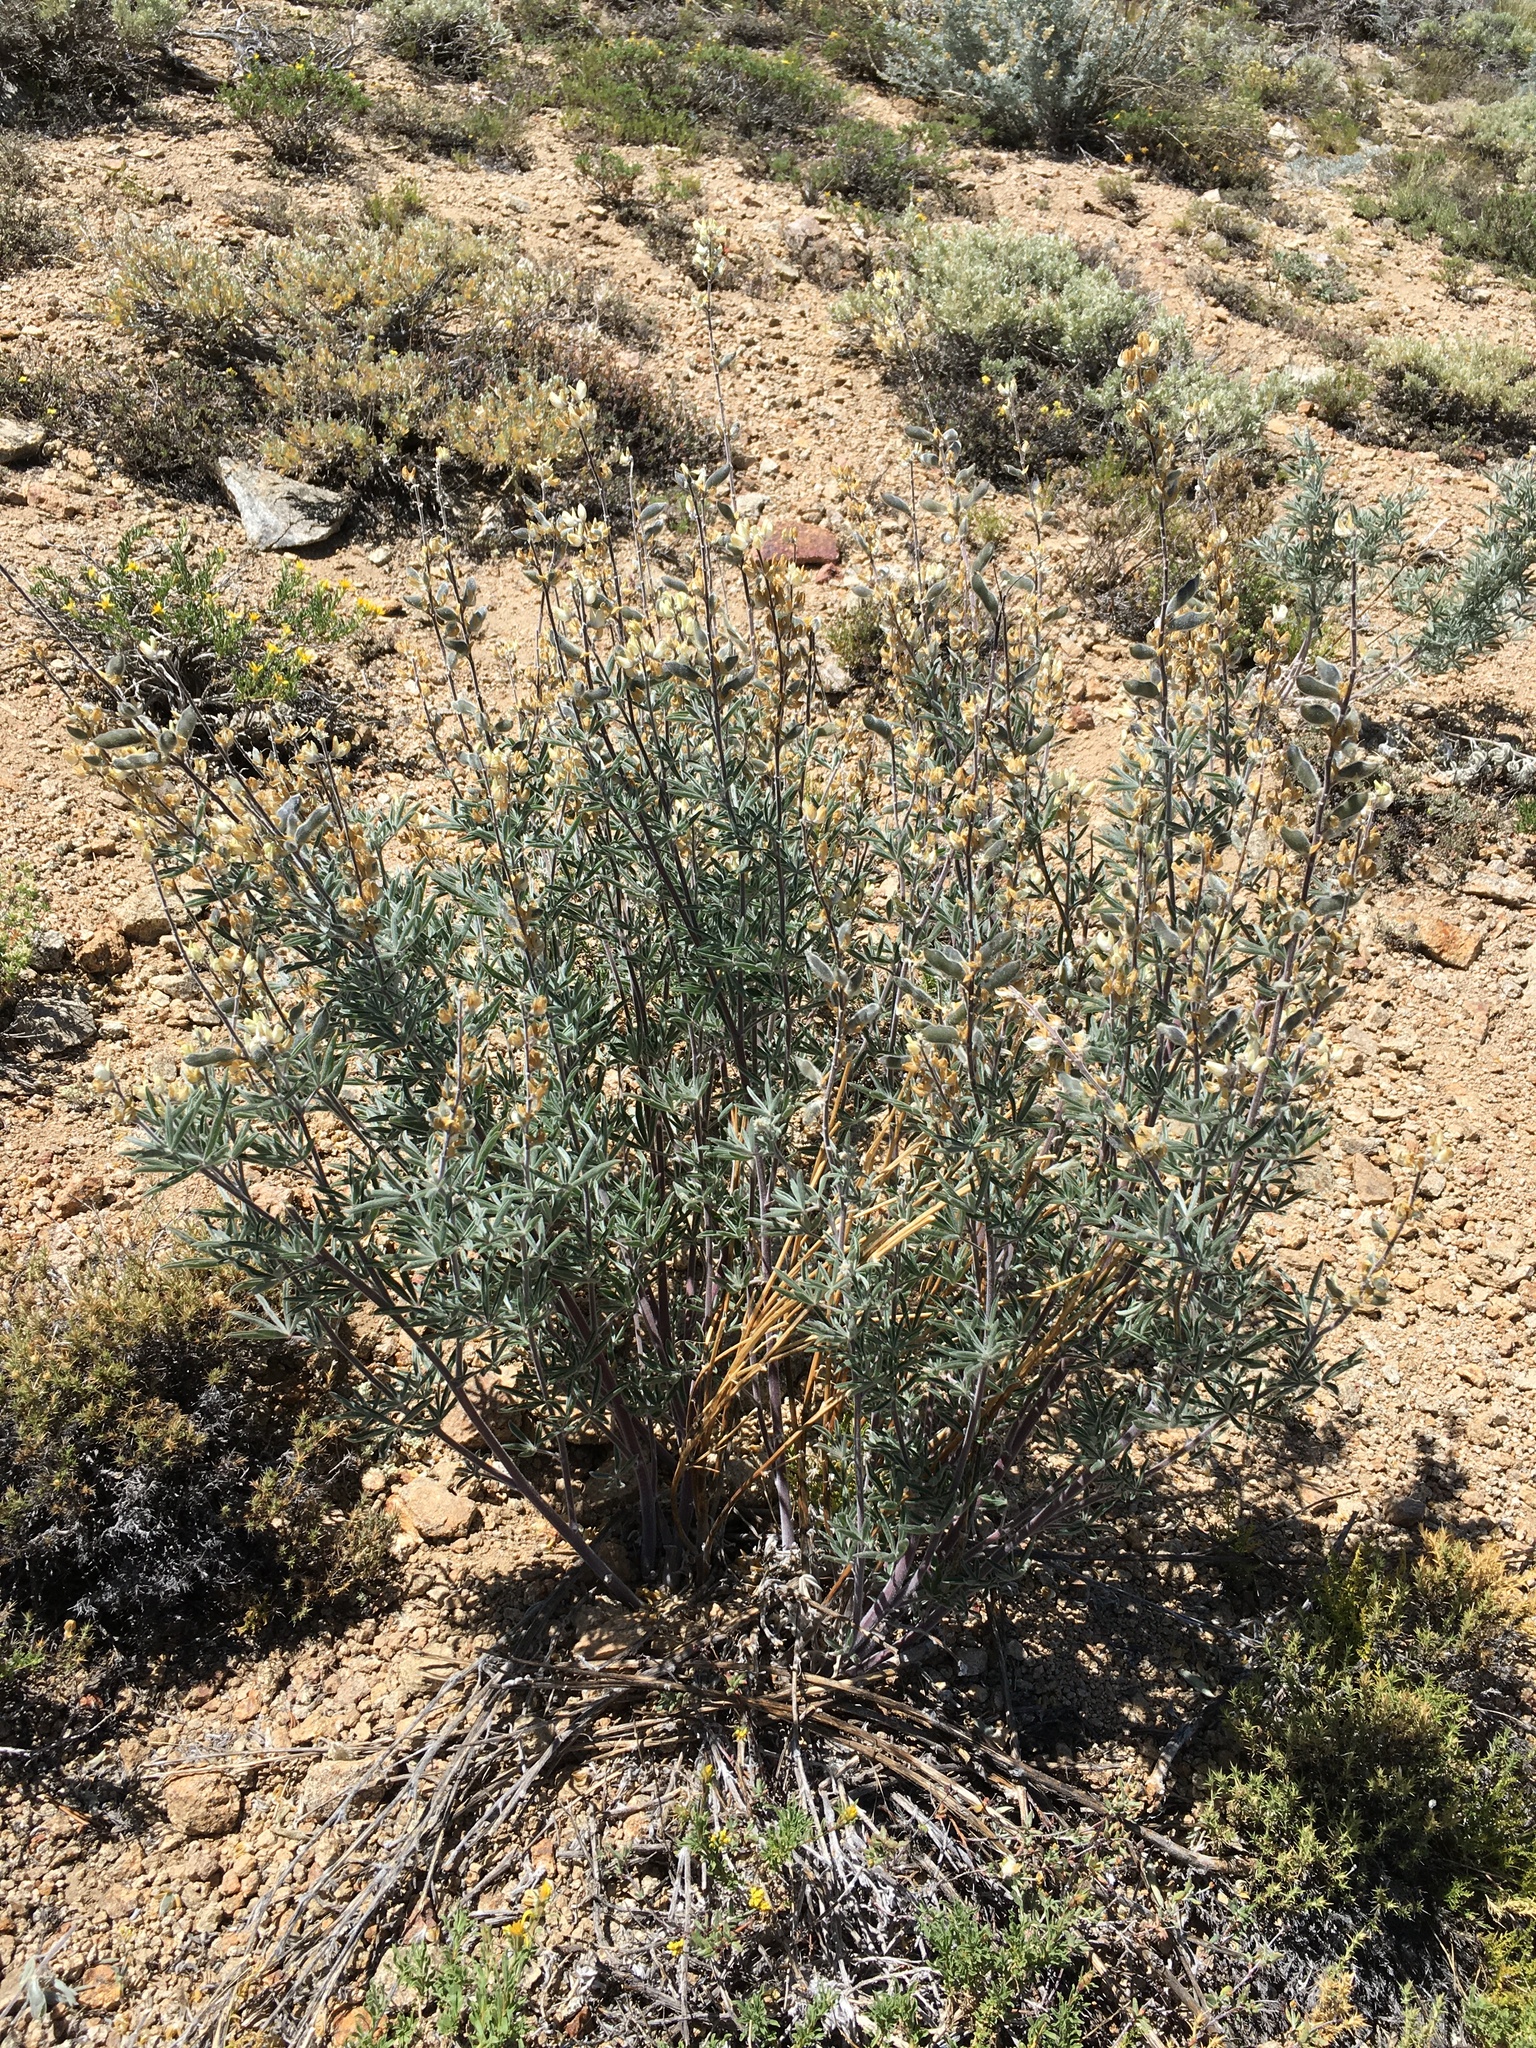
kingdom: Plantae
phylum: Tracheophyta
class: Magnoliopsida
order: Fabales
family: Fabaceae
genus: Lupinus
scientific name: Lupinus padre-crowleyi
